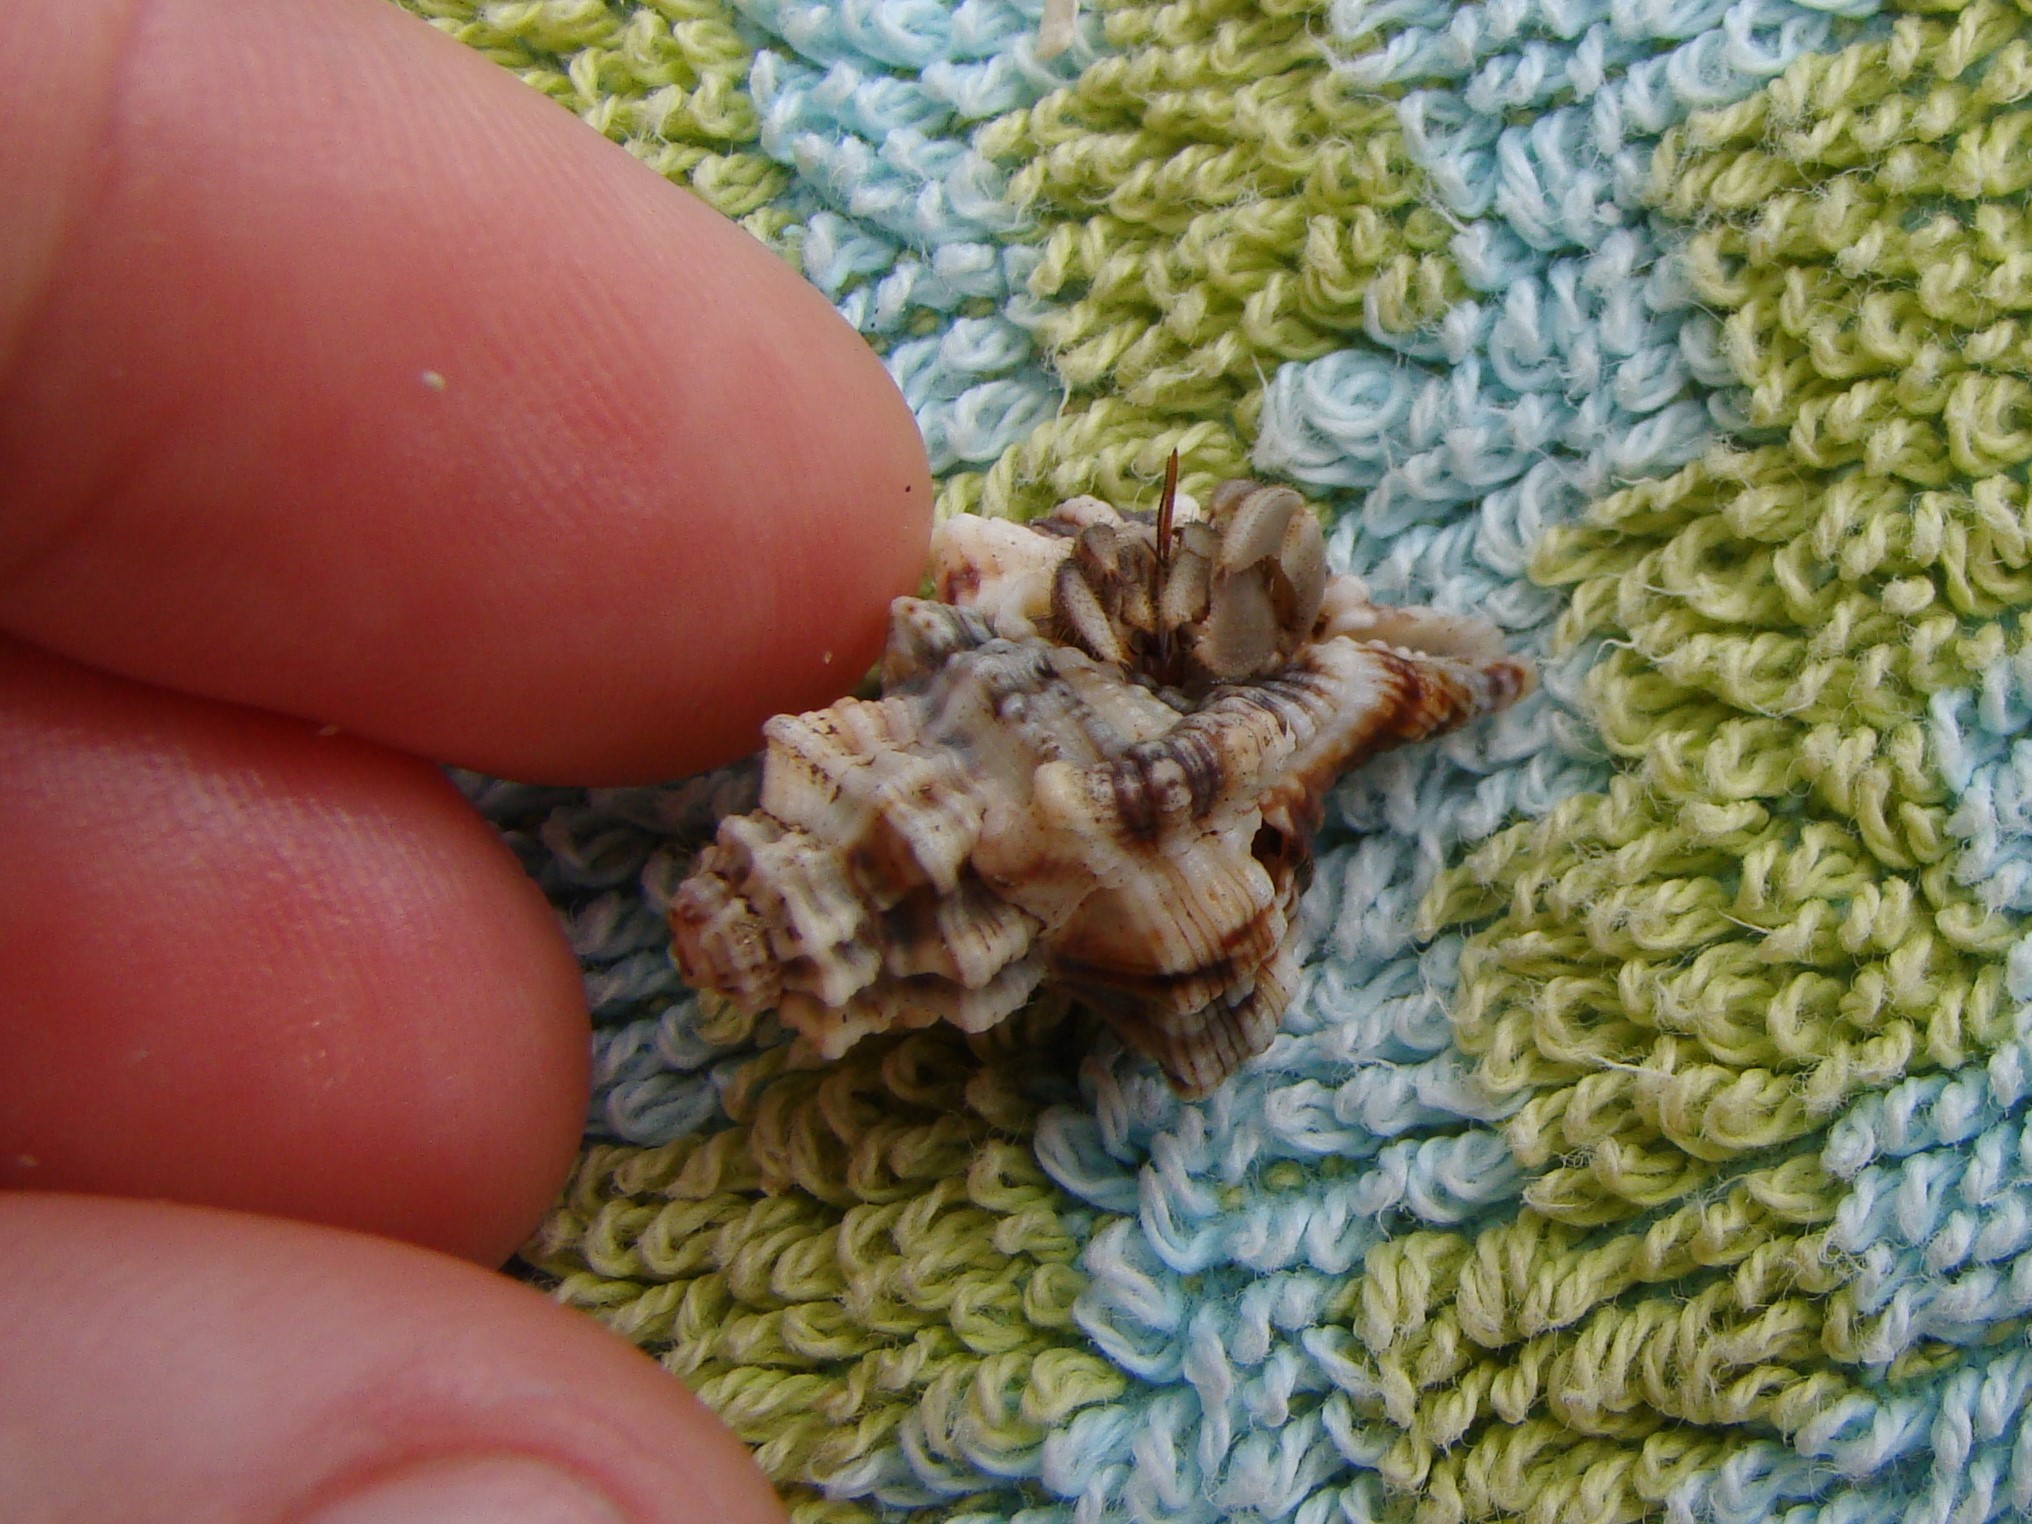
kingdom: Animalia
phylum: Mollusca
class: Gastropoda
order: Littorinimorpha
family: Cymatiidae
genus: Monoplex
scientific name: Monoplex nicobaricus
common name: Goldmouth triton
